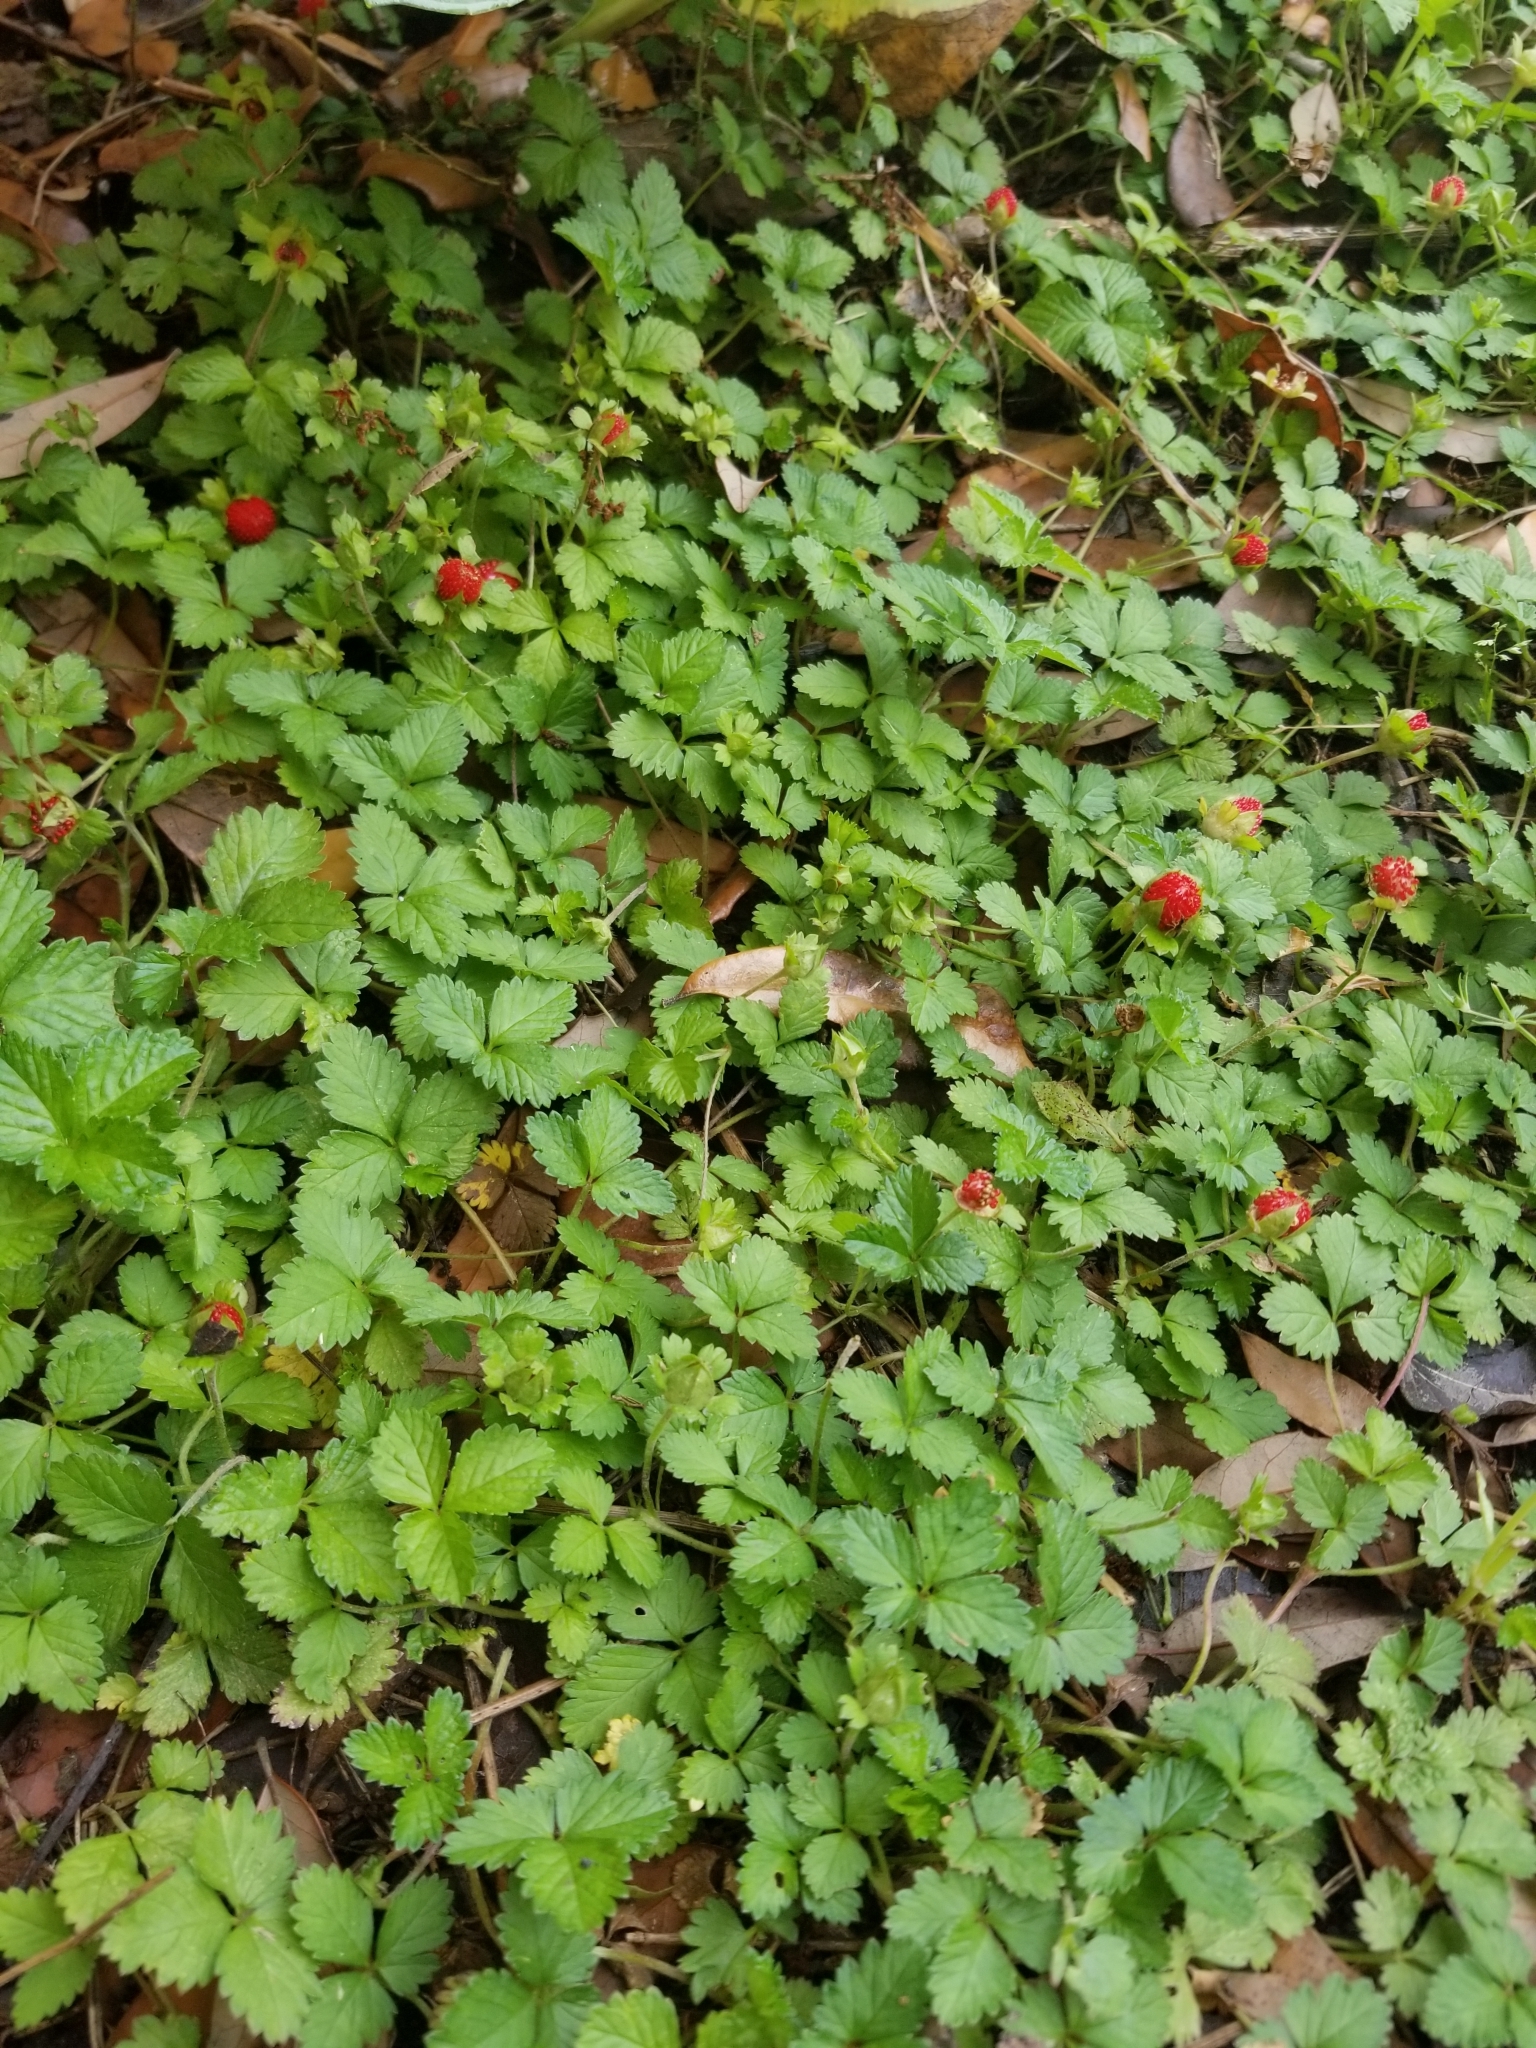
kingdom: Plantae
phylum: Tracheophyta
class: Magnoliopsida
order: Rosales
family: Rosaceae
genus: Potentilla
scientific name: Potentilla indica
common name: Yellow-flowered strawberry
